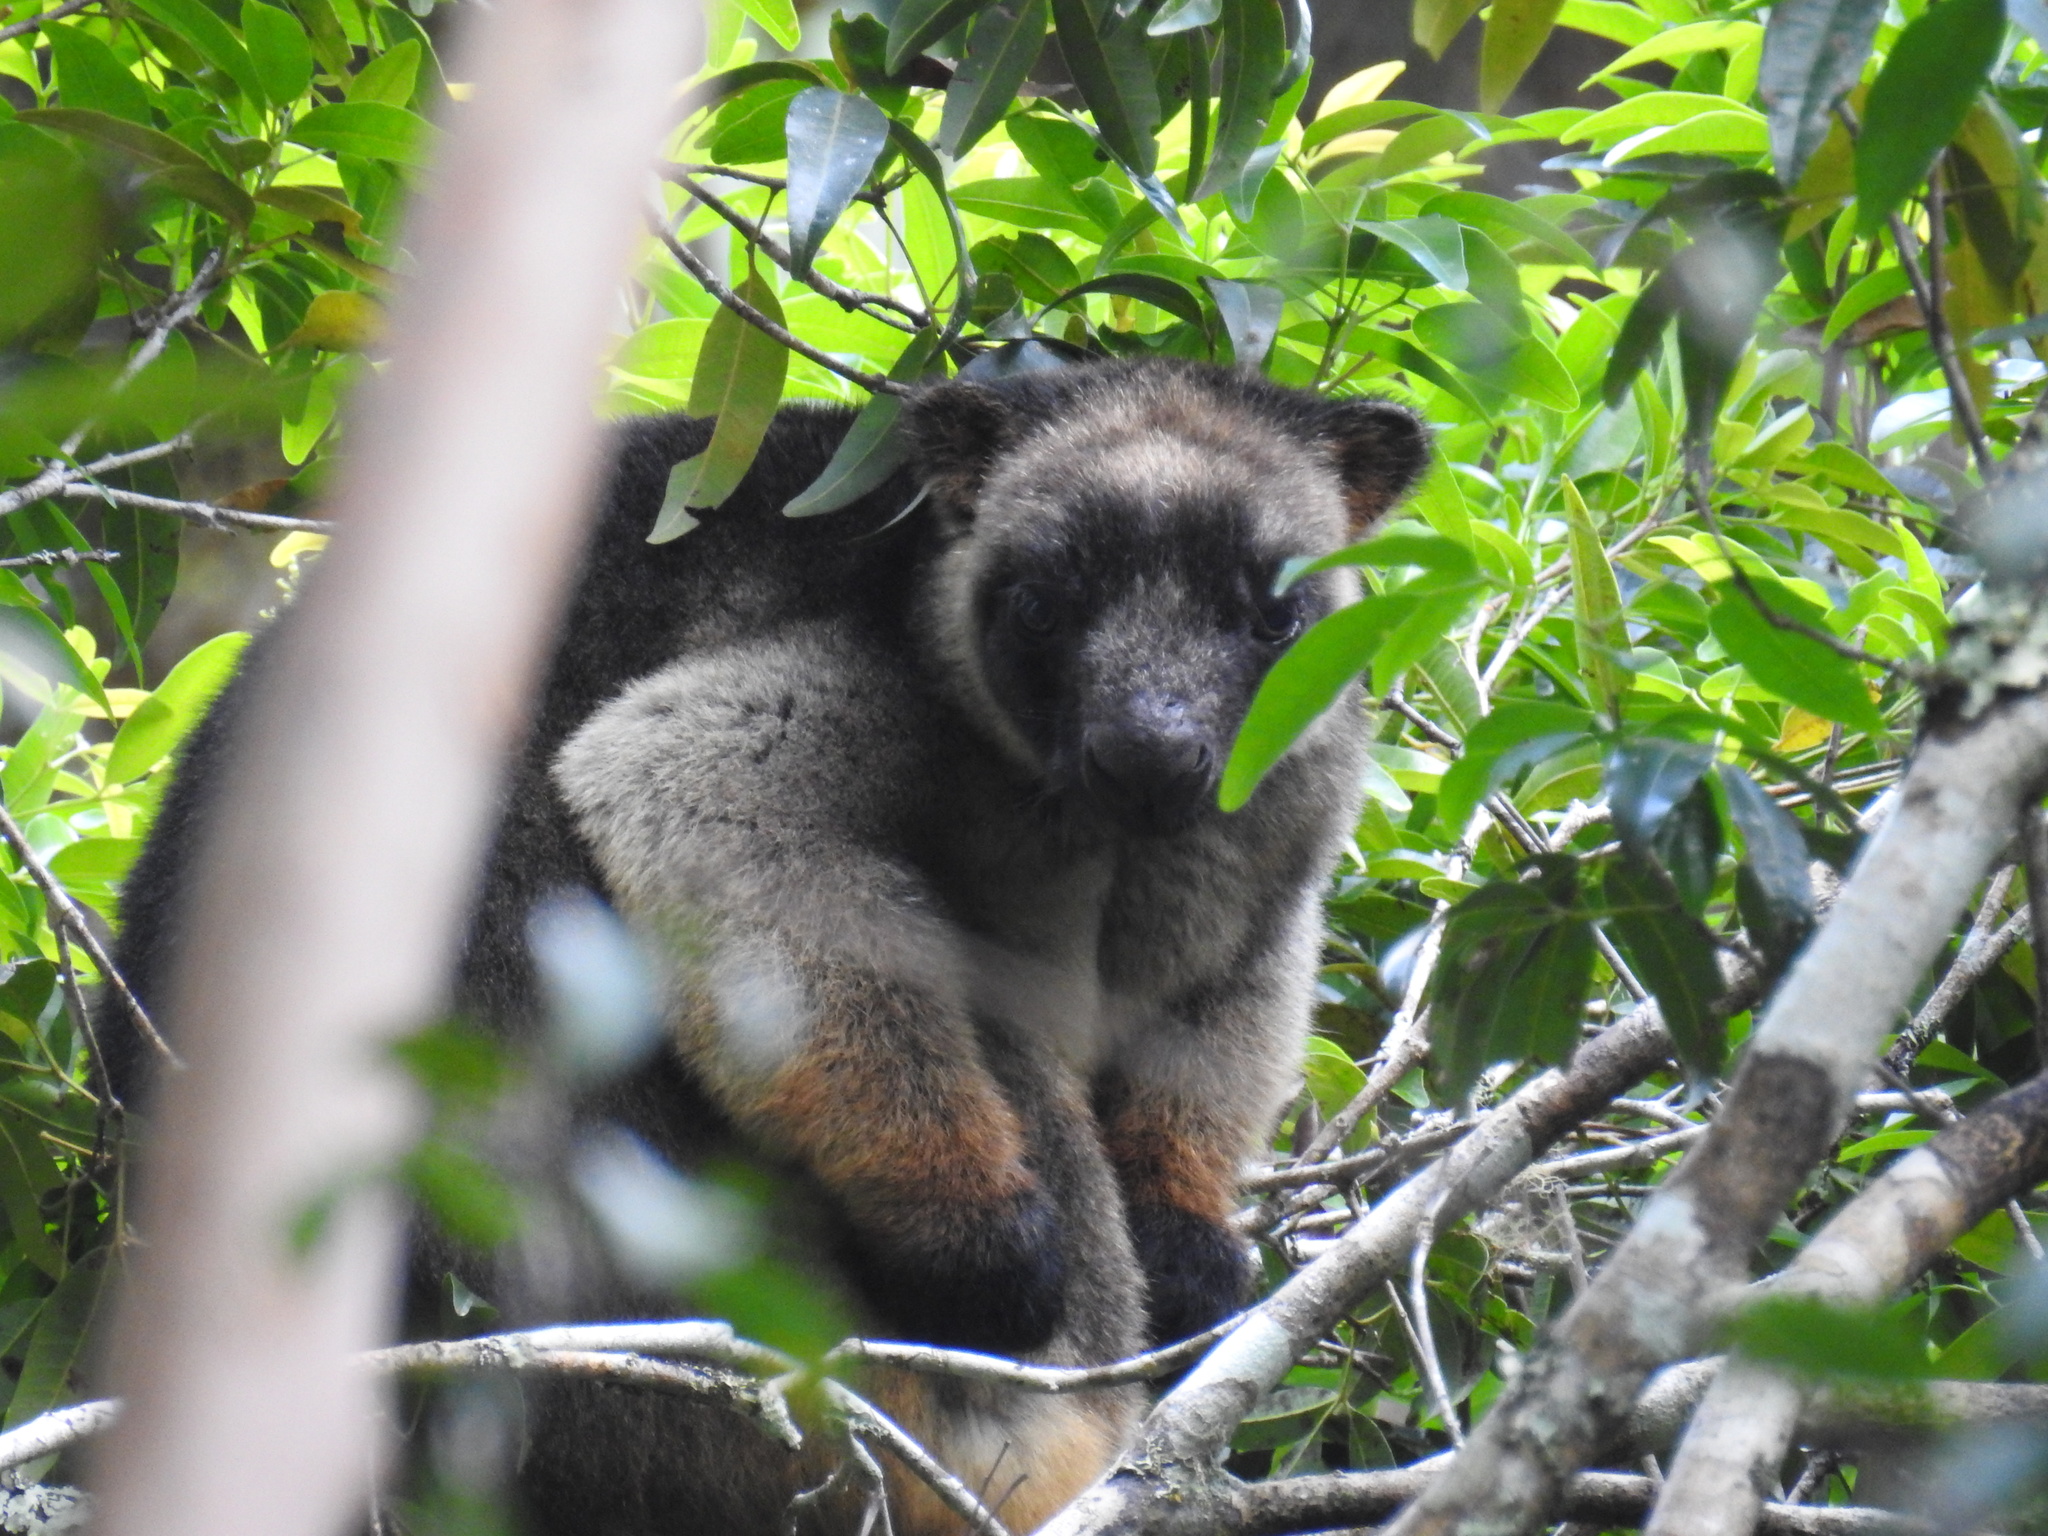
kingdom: Animalia
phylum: Chordata
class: Mammalia
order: Diprotodontia
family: Macropodidae
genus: Dendrolagus
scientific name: Dendrolagus lumholtzi
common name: Lumholtz's tree kangaroo
